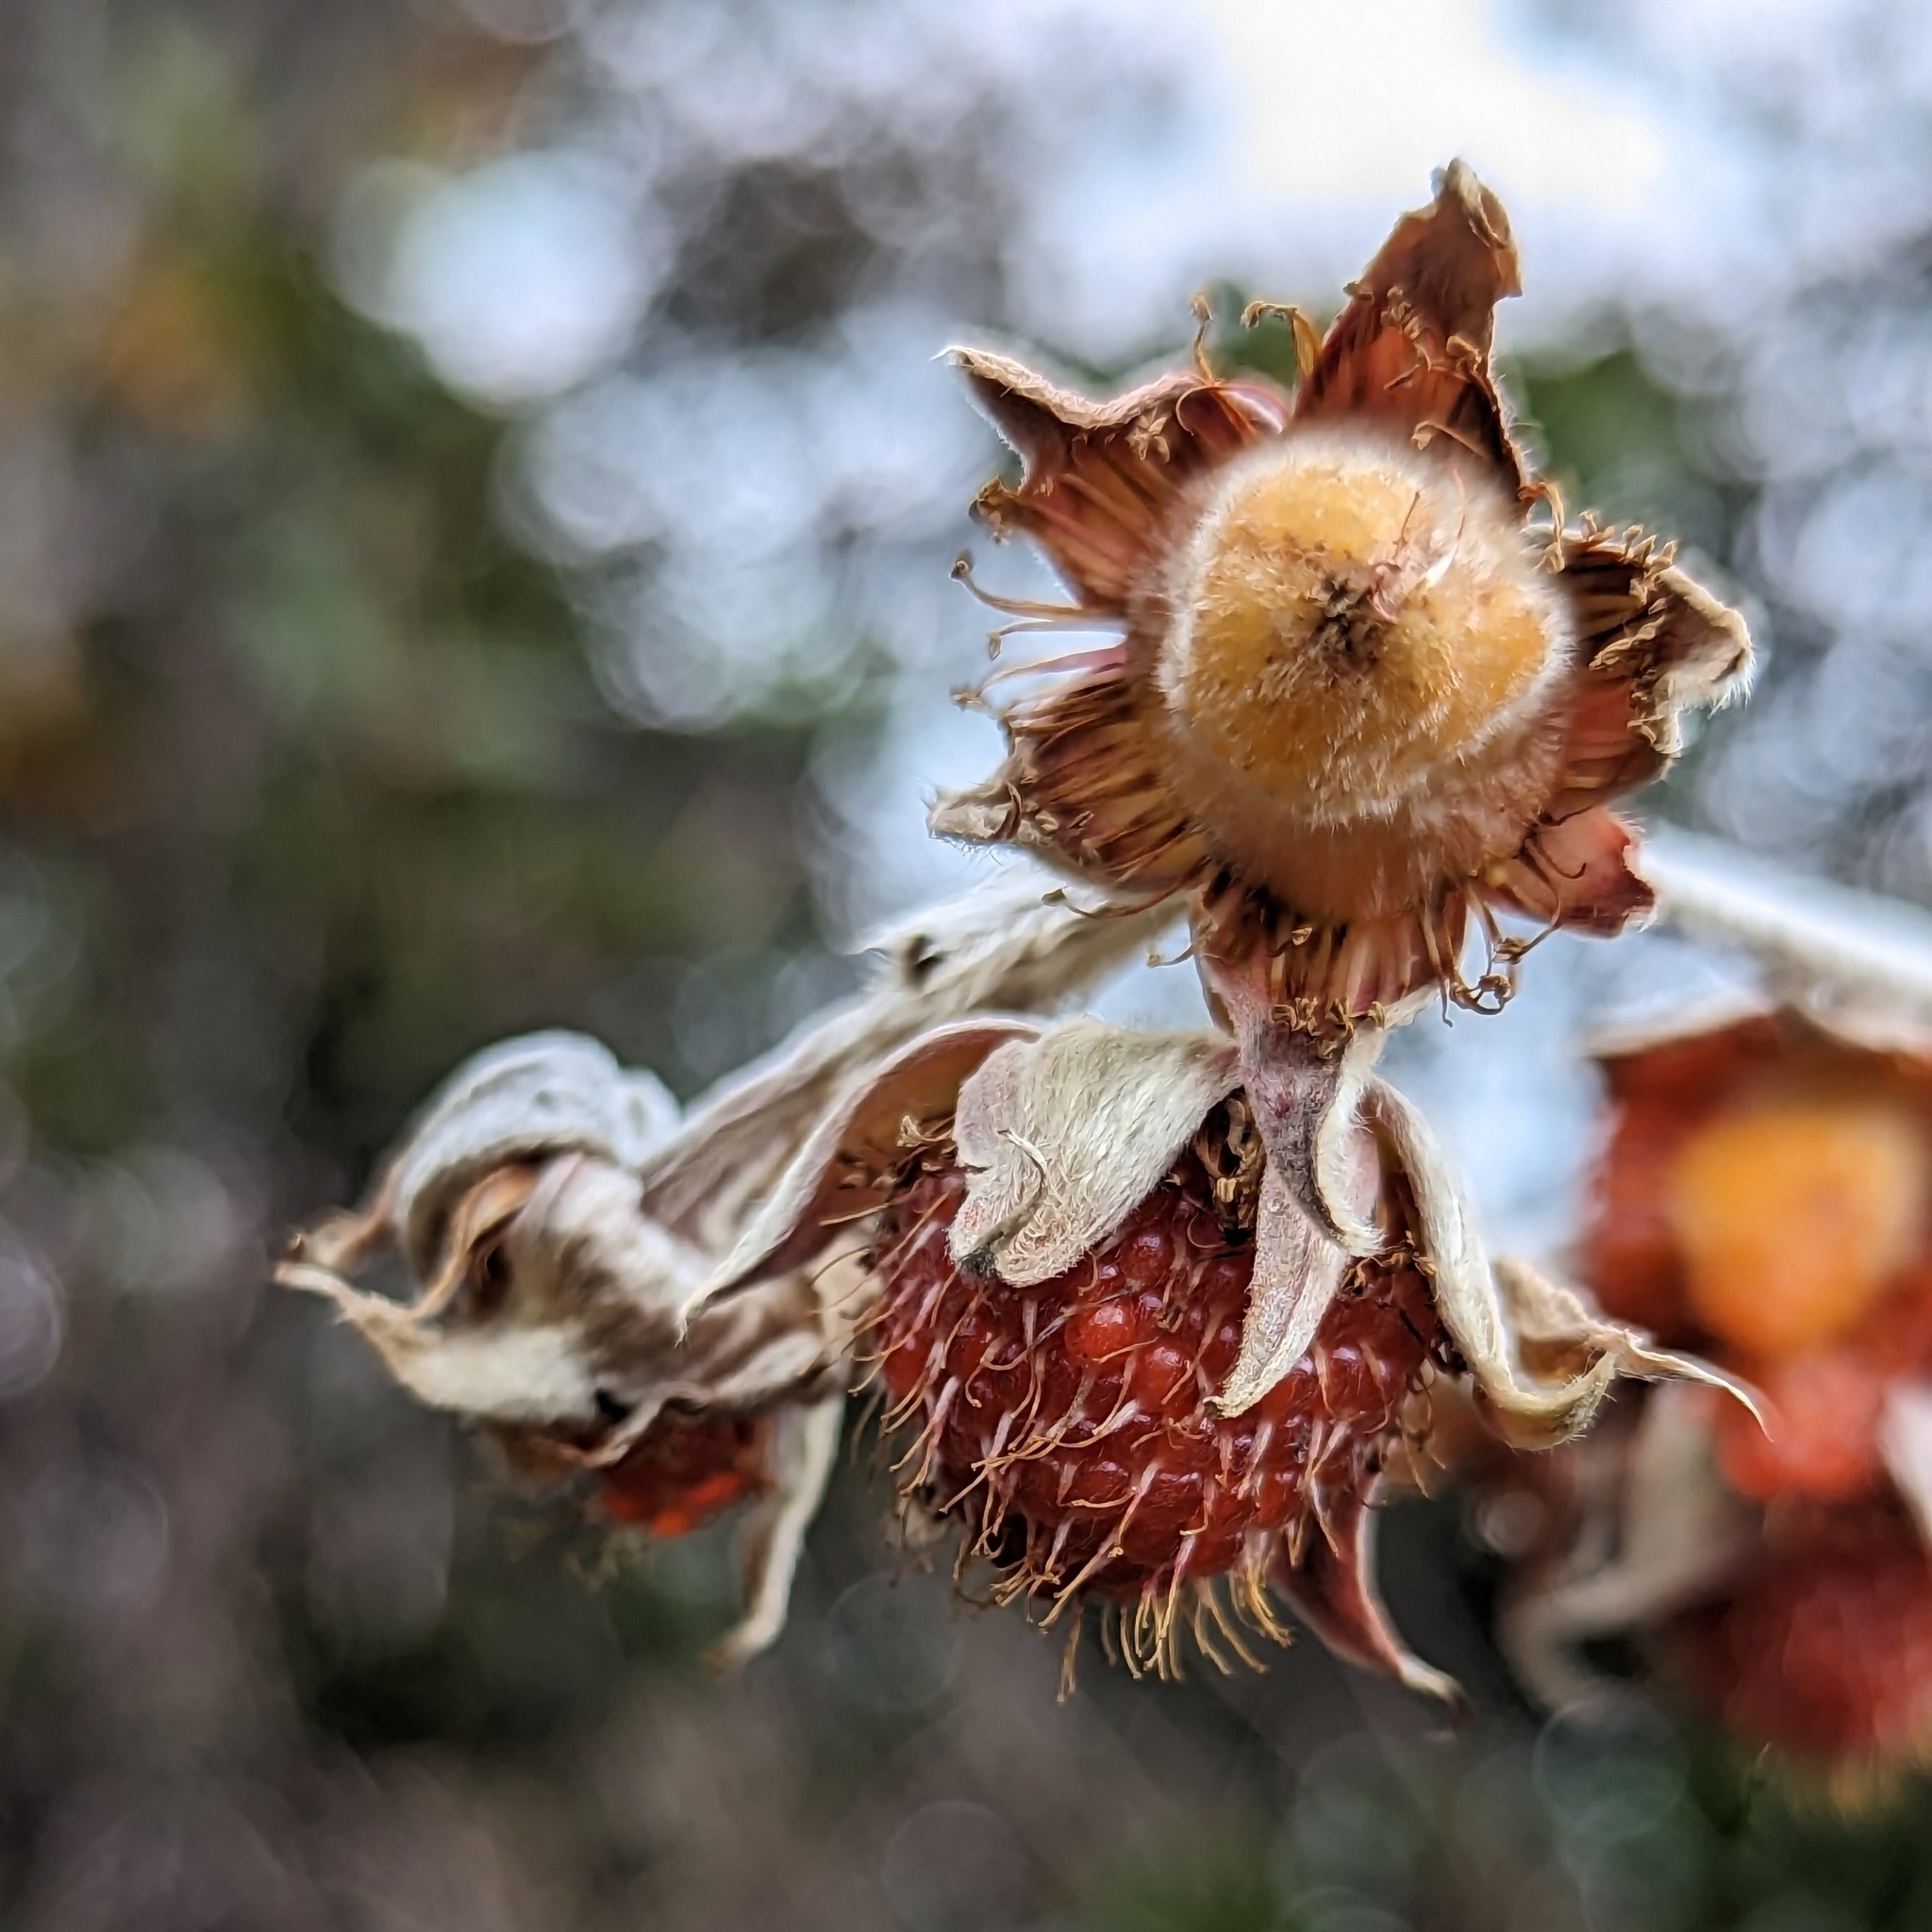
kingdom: Plantae
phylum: Tracheophyta
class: Magnoliopsida
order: Rosales
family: Rosaceae
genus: Rubus
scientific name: Rubus lineatus
